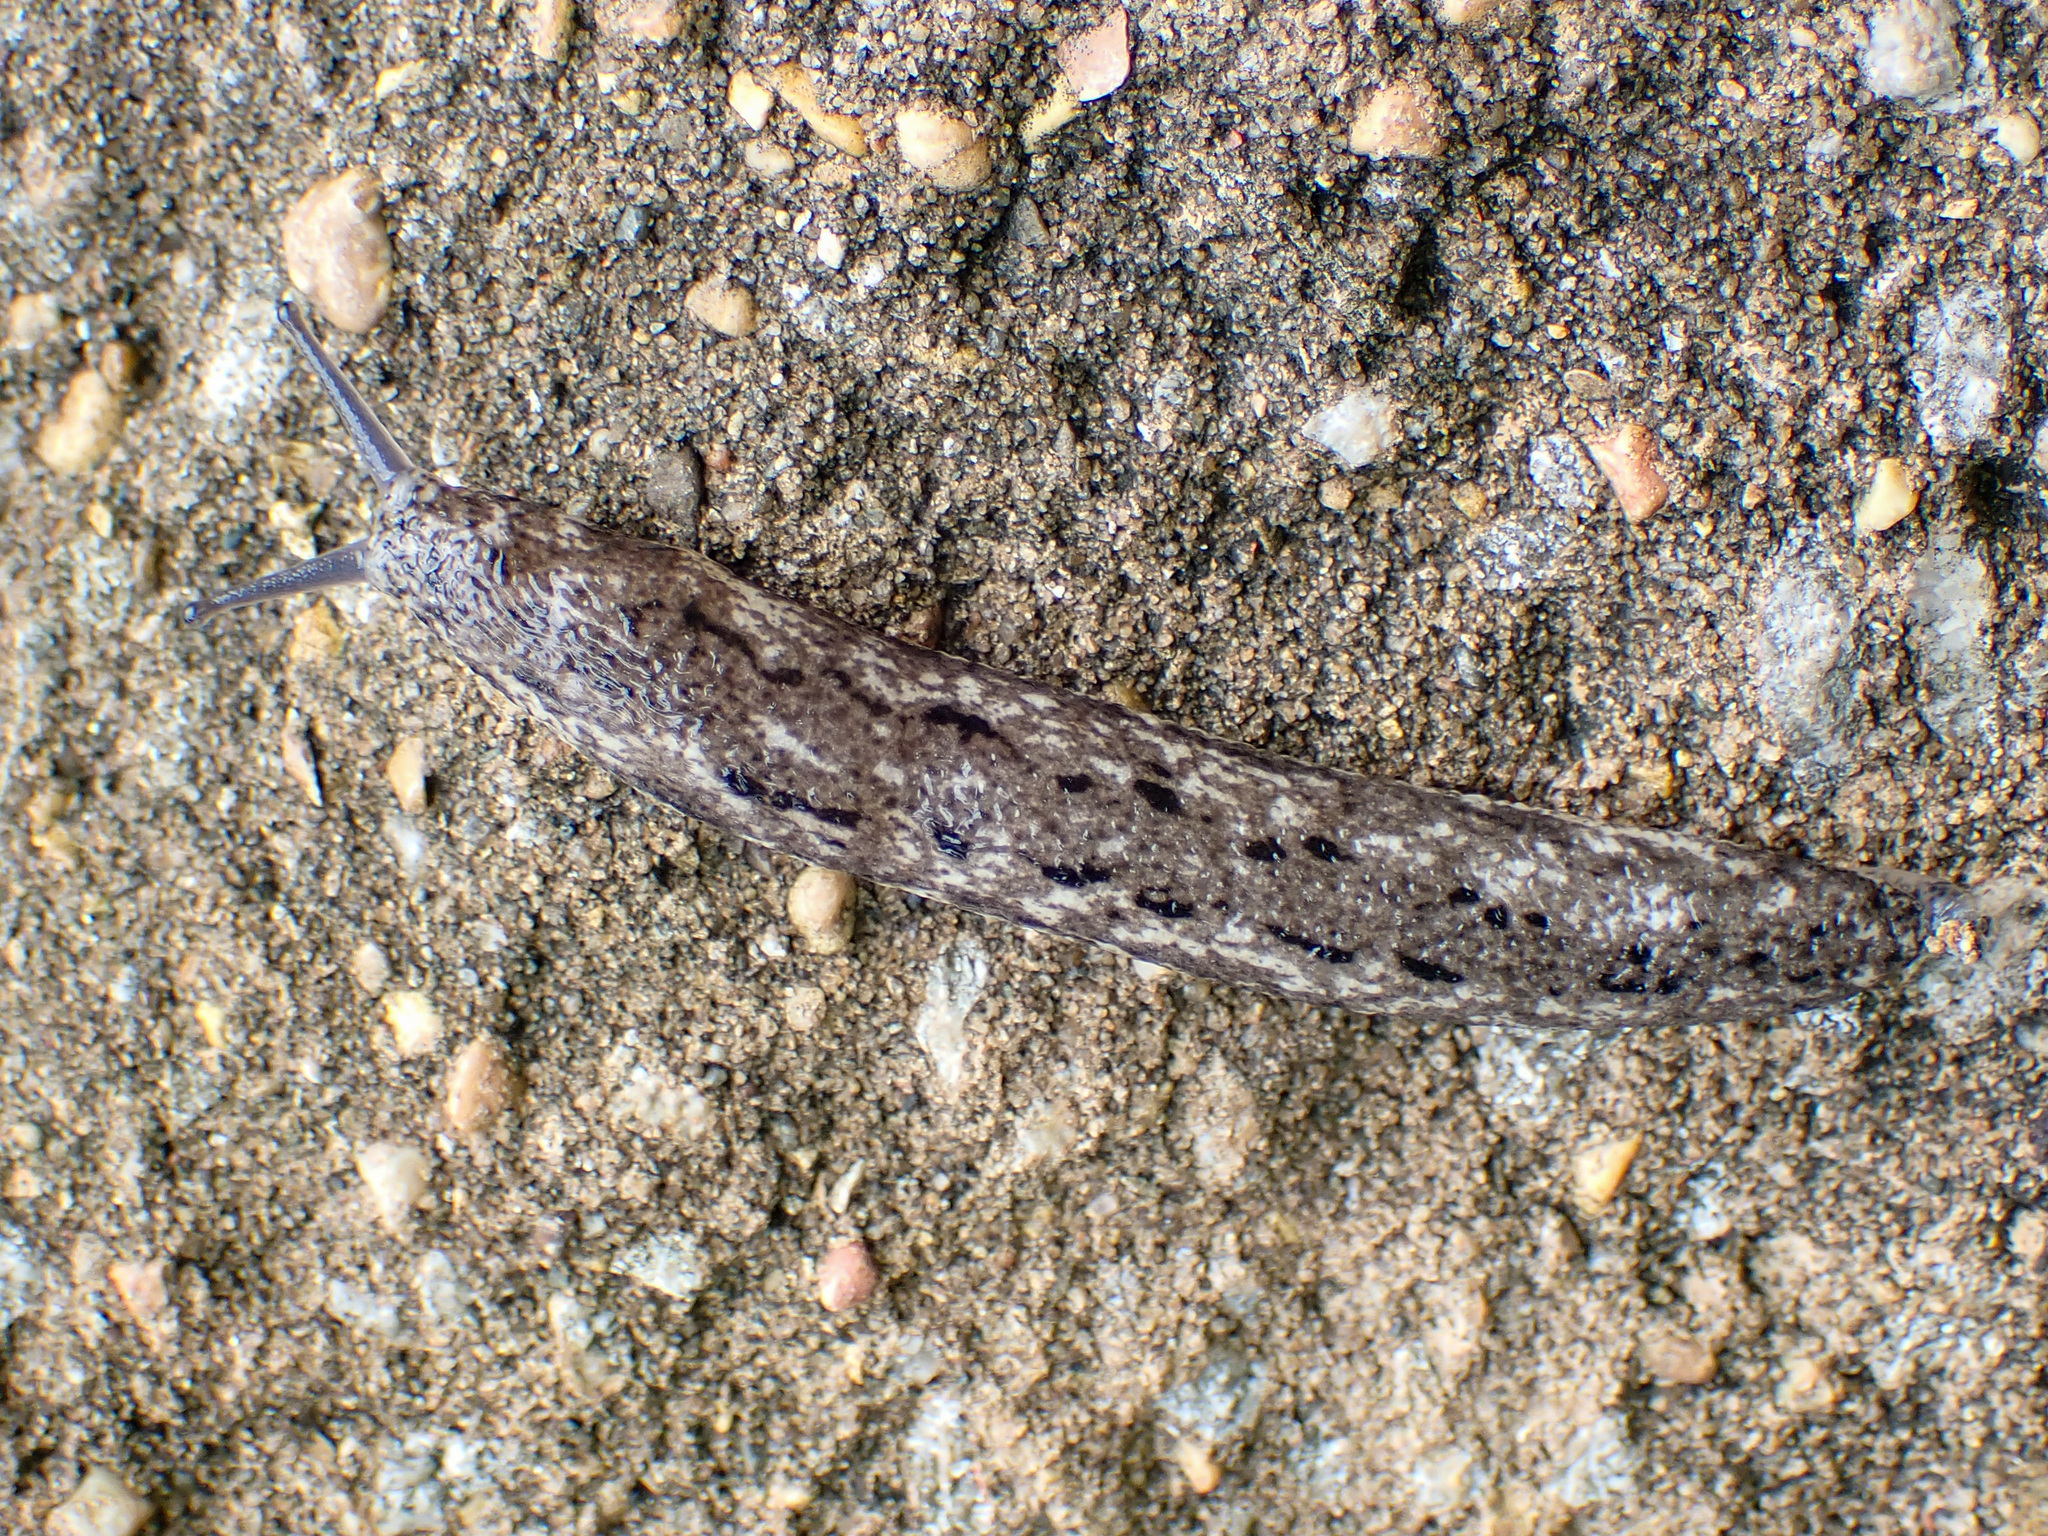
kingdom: Animalia
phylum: Mollusca
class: Gastropoda
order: Stylommatophora
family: Philomycidae
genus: Philomycus
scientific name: Philomycus carolinianus
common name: Carolina mantleslug
